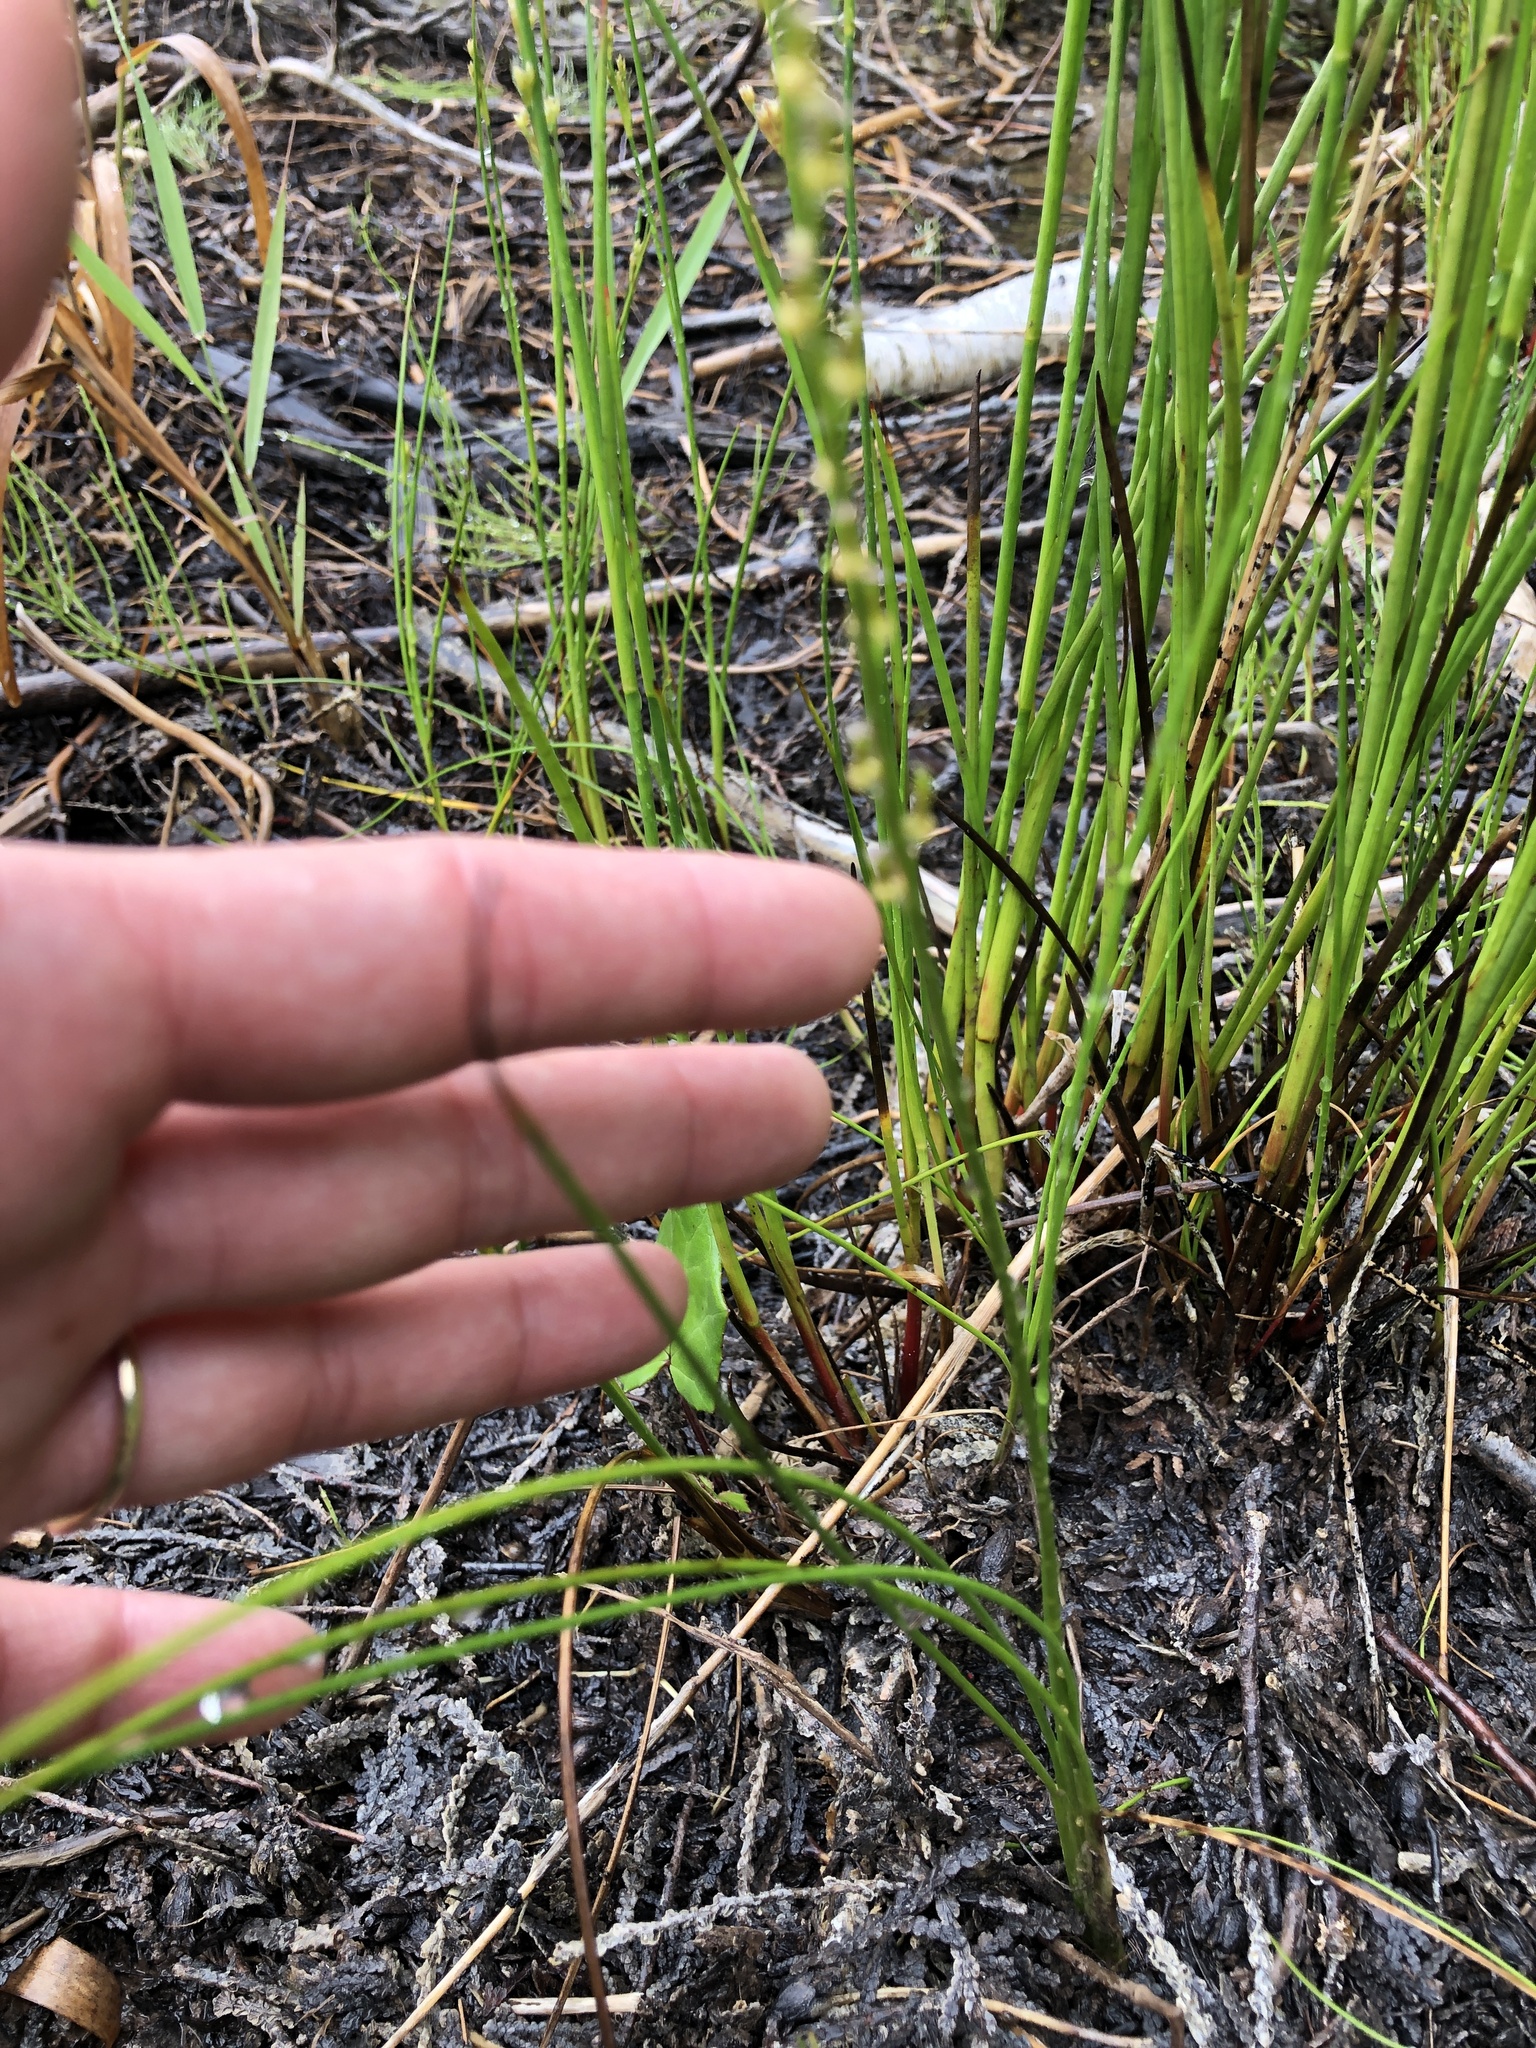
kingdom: Plantae
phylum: Tracheophyta
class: Liliopsida
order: Alismatales
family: Juncaginaceae
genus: Triglochin
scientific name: Triglochin palustris
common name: Marsh arrowgrass
